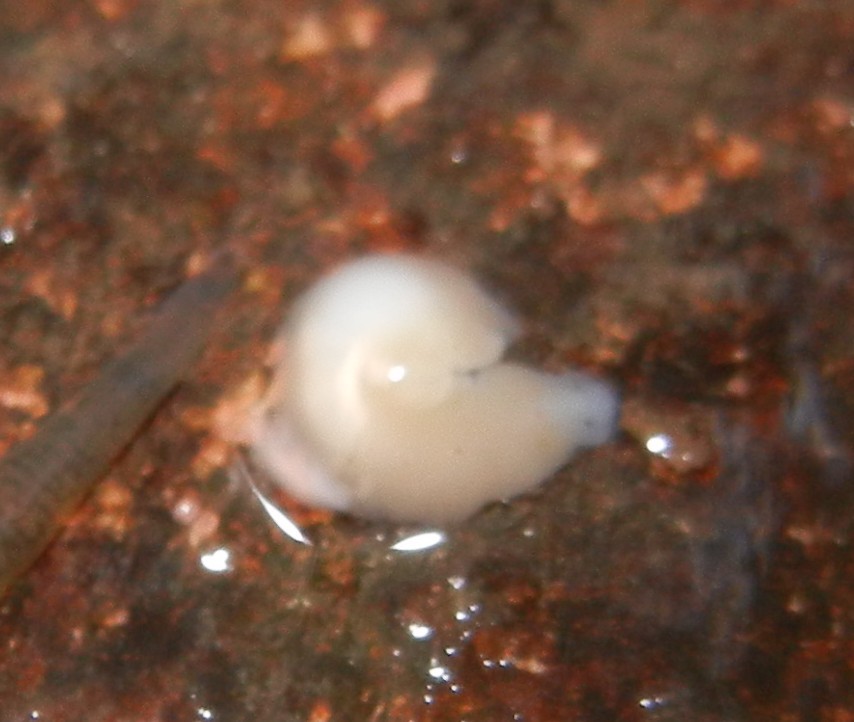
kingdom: Animalia
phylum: Platyhelminthes
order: Tricladida
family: Dendrocoelidae
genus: Dendrocoelum
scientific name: Dendrocoelum lacteum
